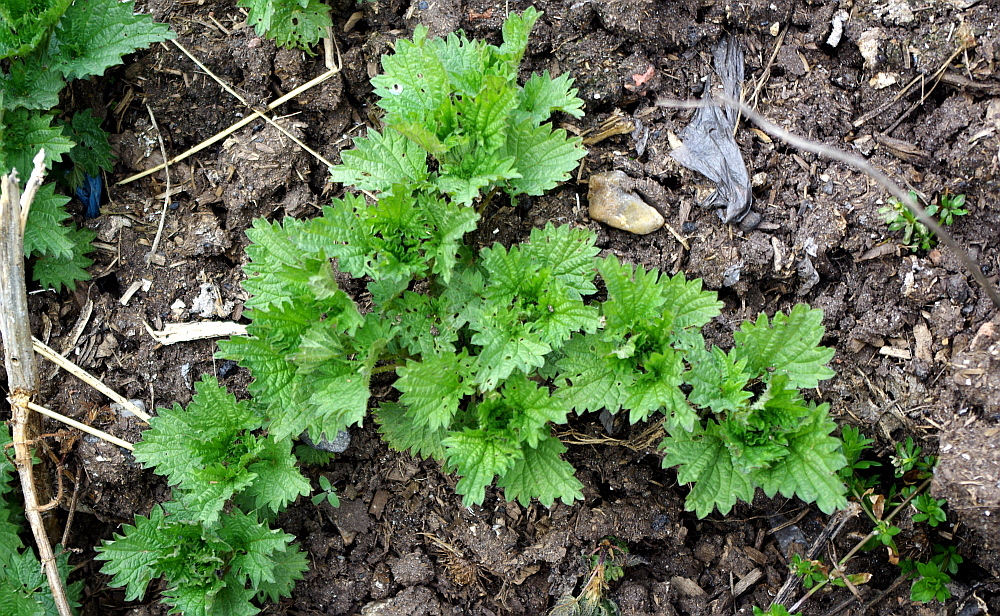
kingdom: Plantae
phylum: Tracheophyta
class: Magnoliopsida
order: Rosales
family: Urticaceae
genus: Urtica
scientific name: Urtica dioica
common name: Common nettle
